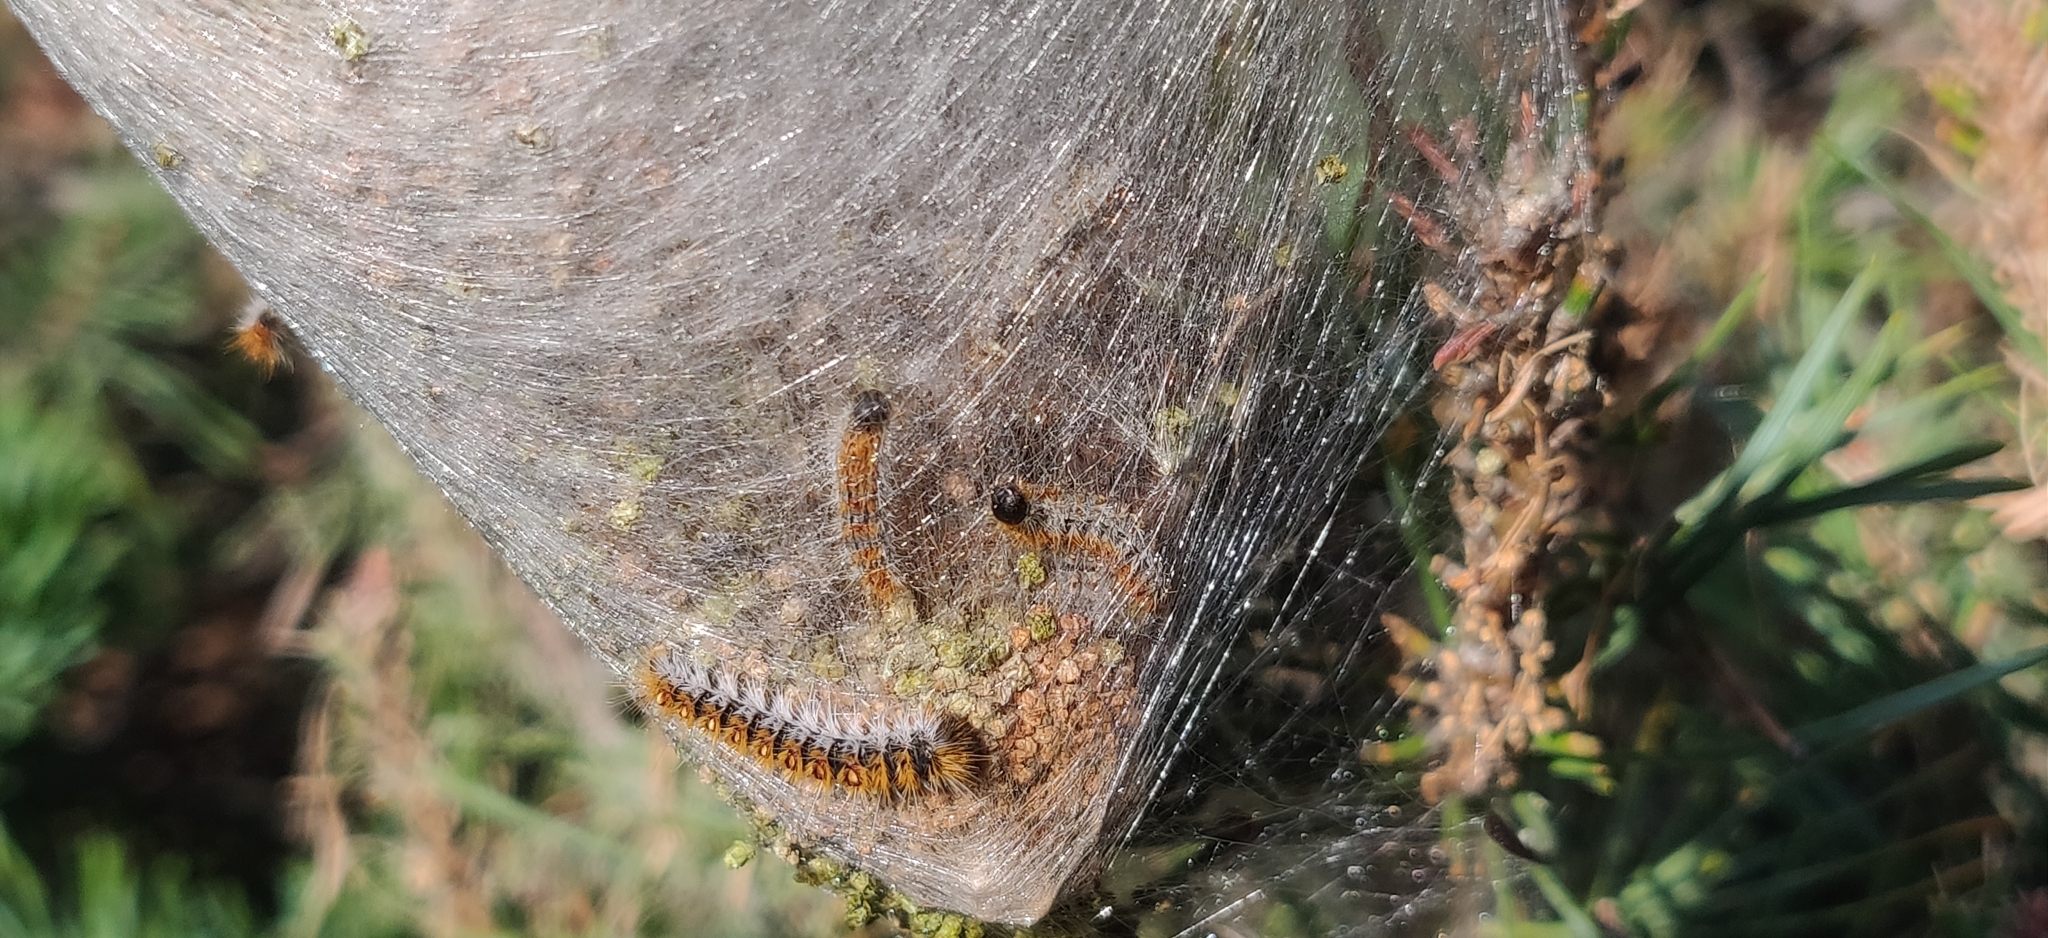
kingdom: Animalia
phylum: Arthropoda
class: Insecta
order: Lepidoptera
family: Notodontidae
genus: Thaumetopoea
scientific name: Thaumetopoea pityocampa
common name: Pine processionary
